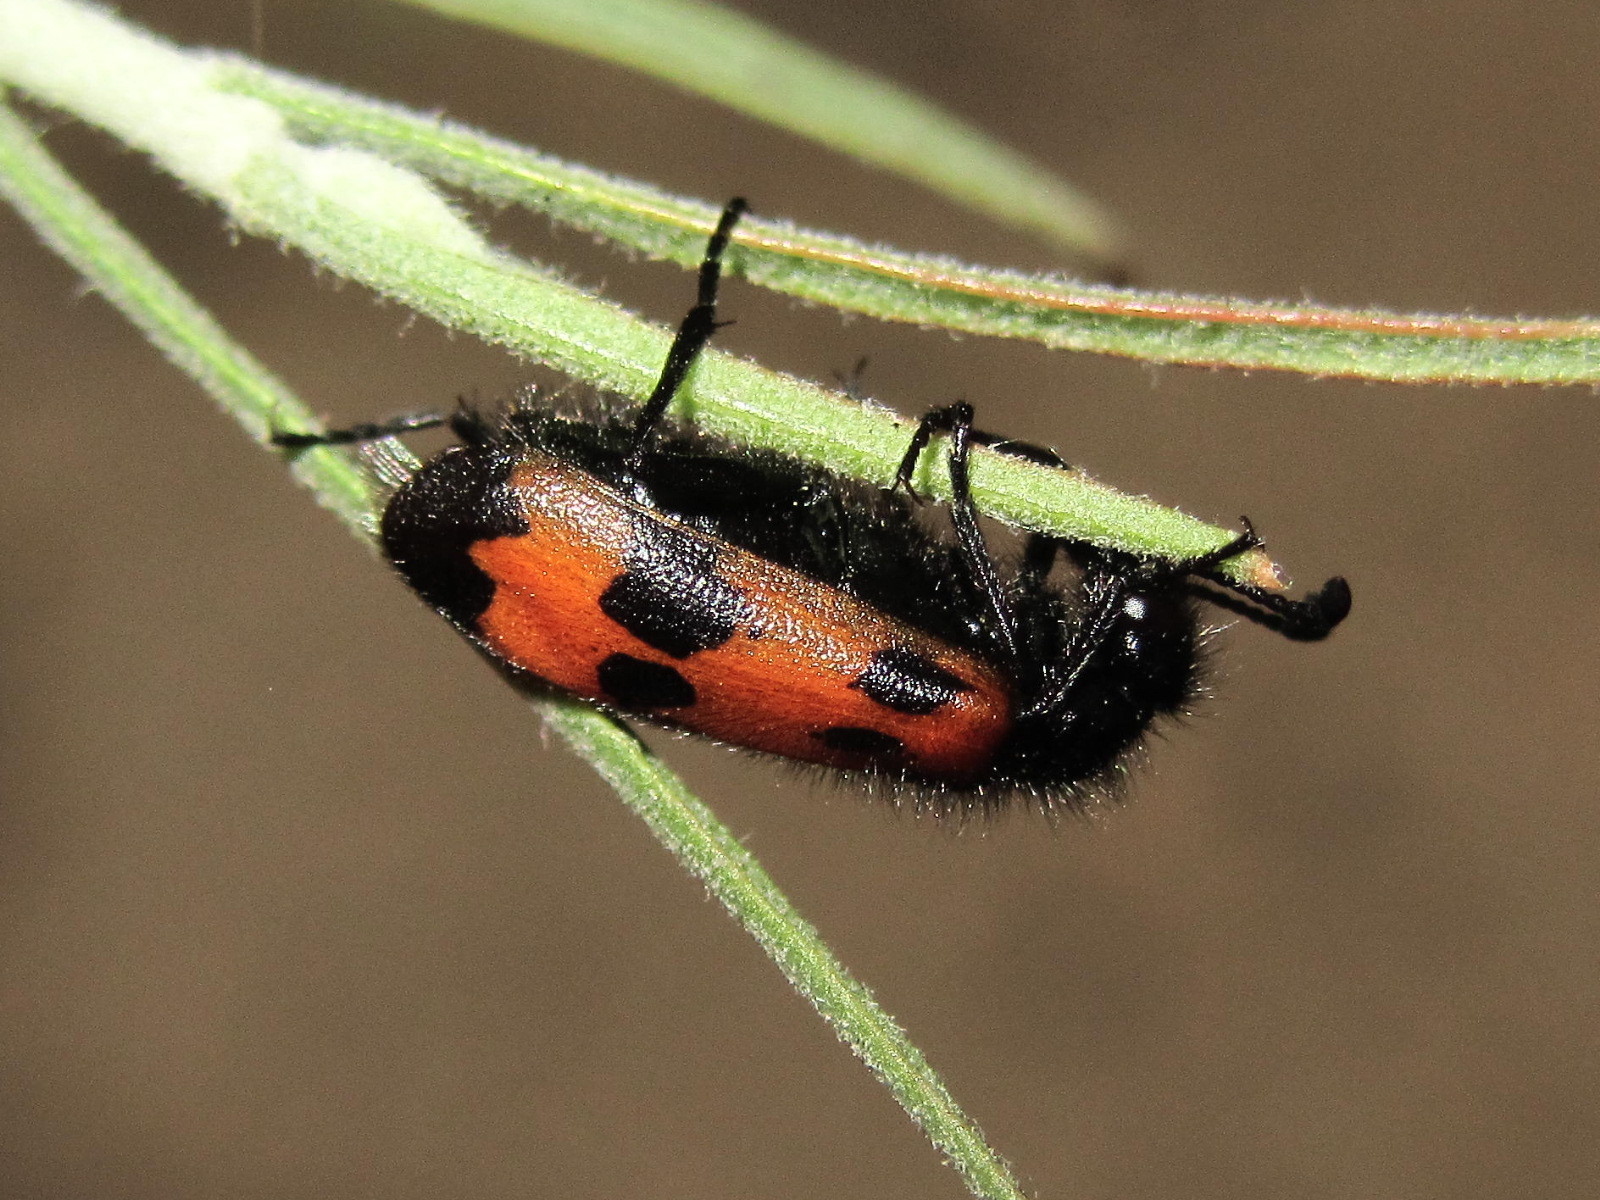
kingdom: Animalia
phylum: Arthropoda
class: Insecta
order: Coleoptera
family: Meloidae
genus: Mylabris
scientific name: Mylabris quadripunctata
